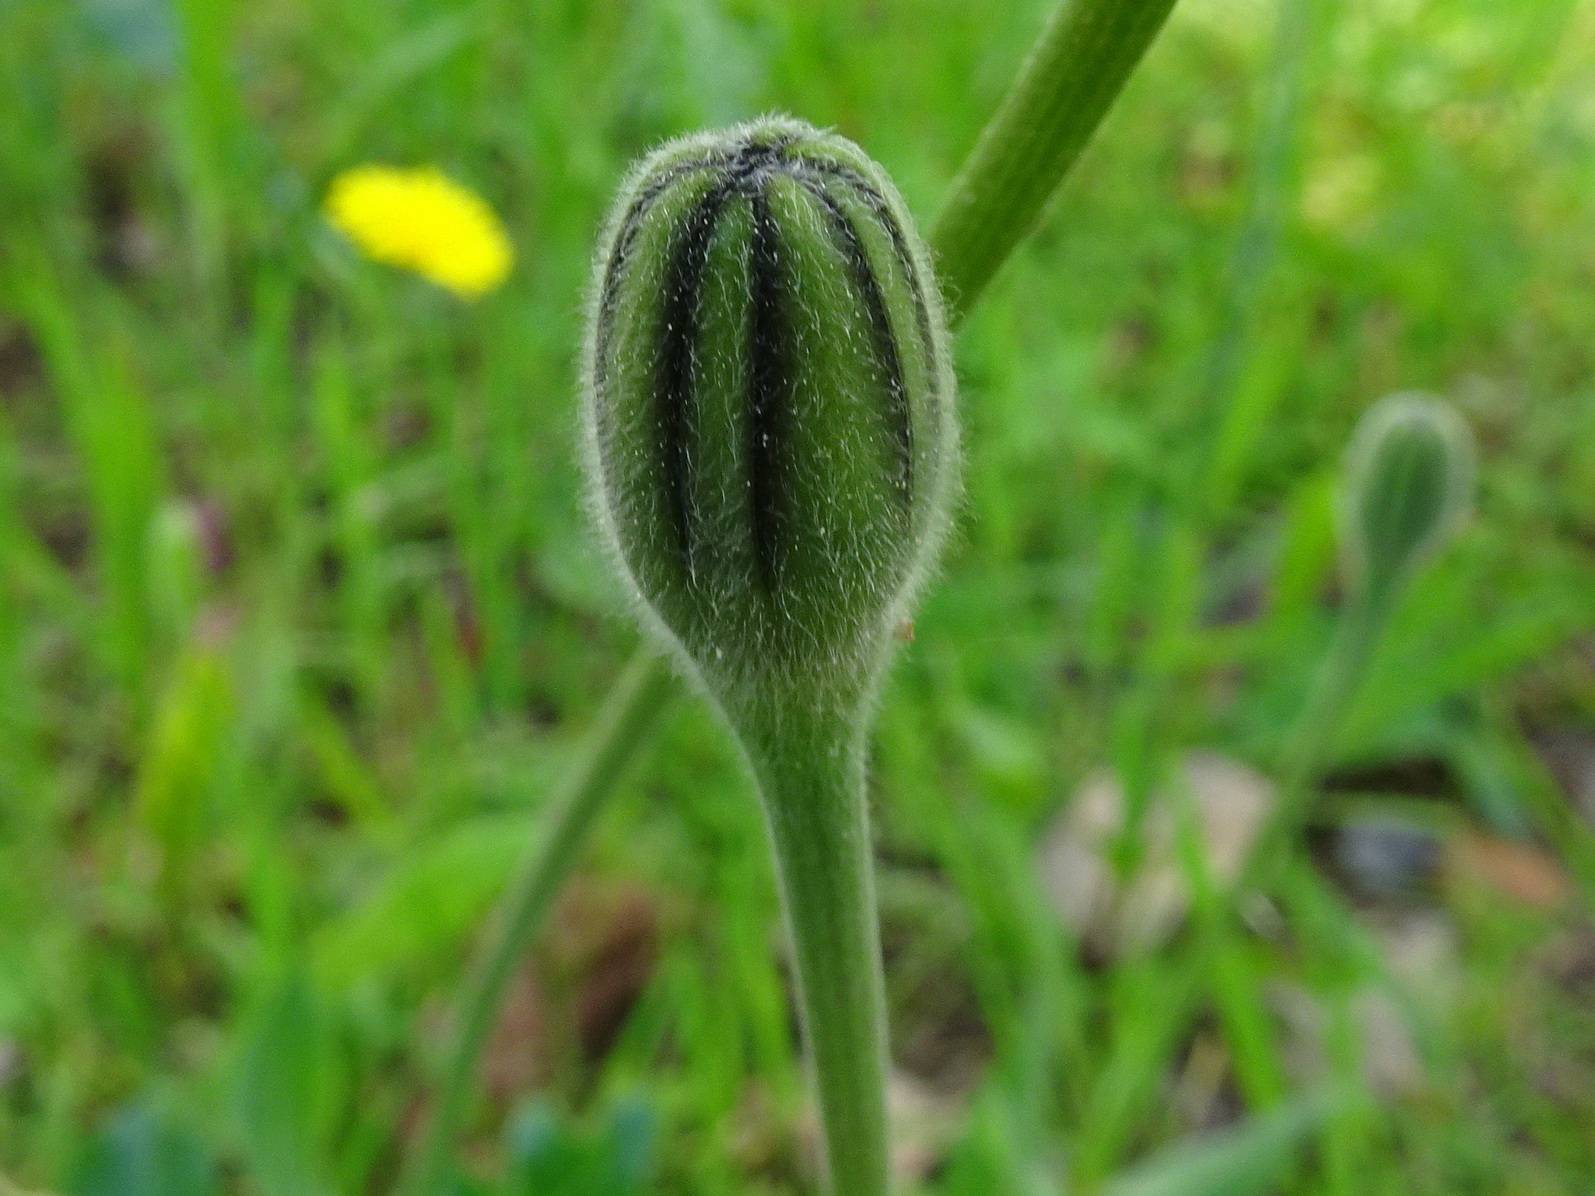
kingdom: Plantae
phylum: Tracheophyta
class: Magnoliopsida
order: Asterales
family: Asteraceae
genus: Urospermum
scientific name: Urospermum dalechampii
